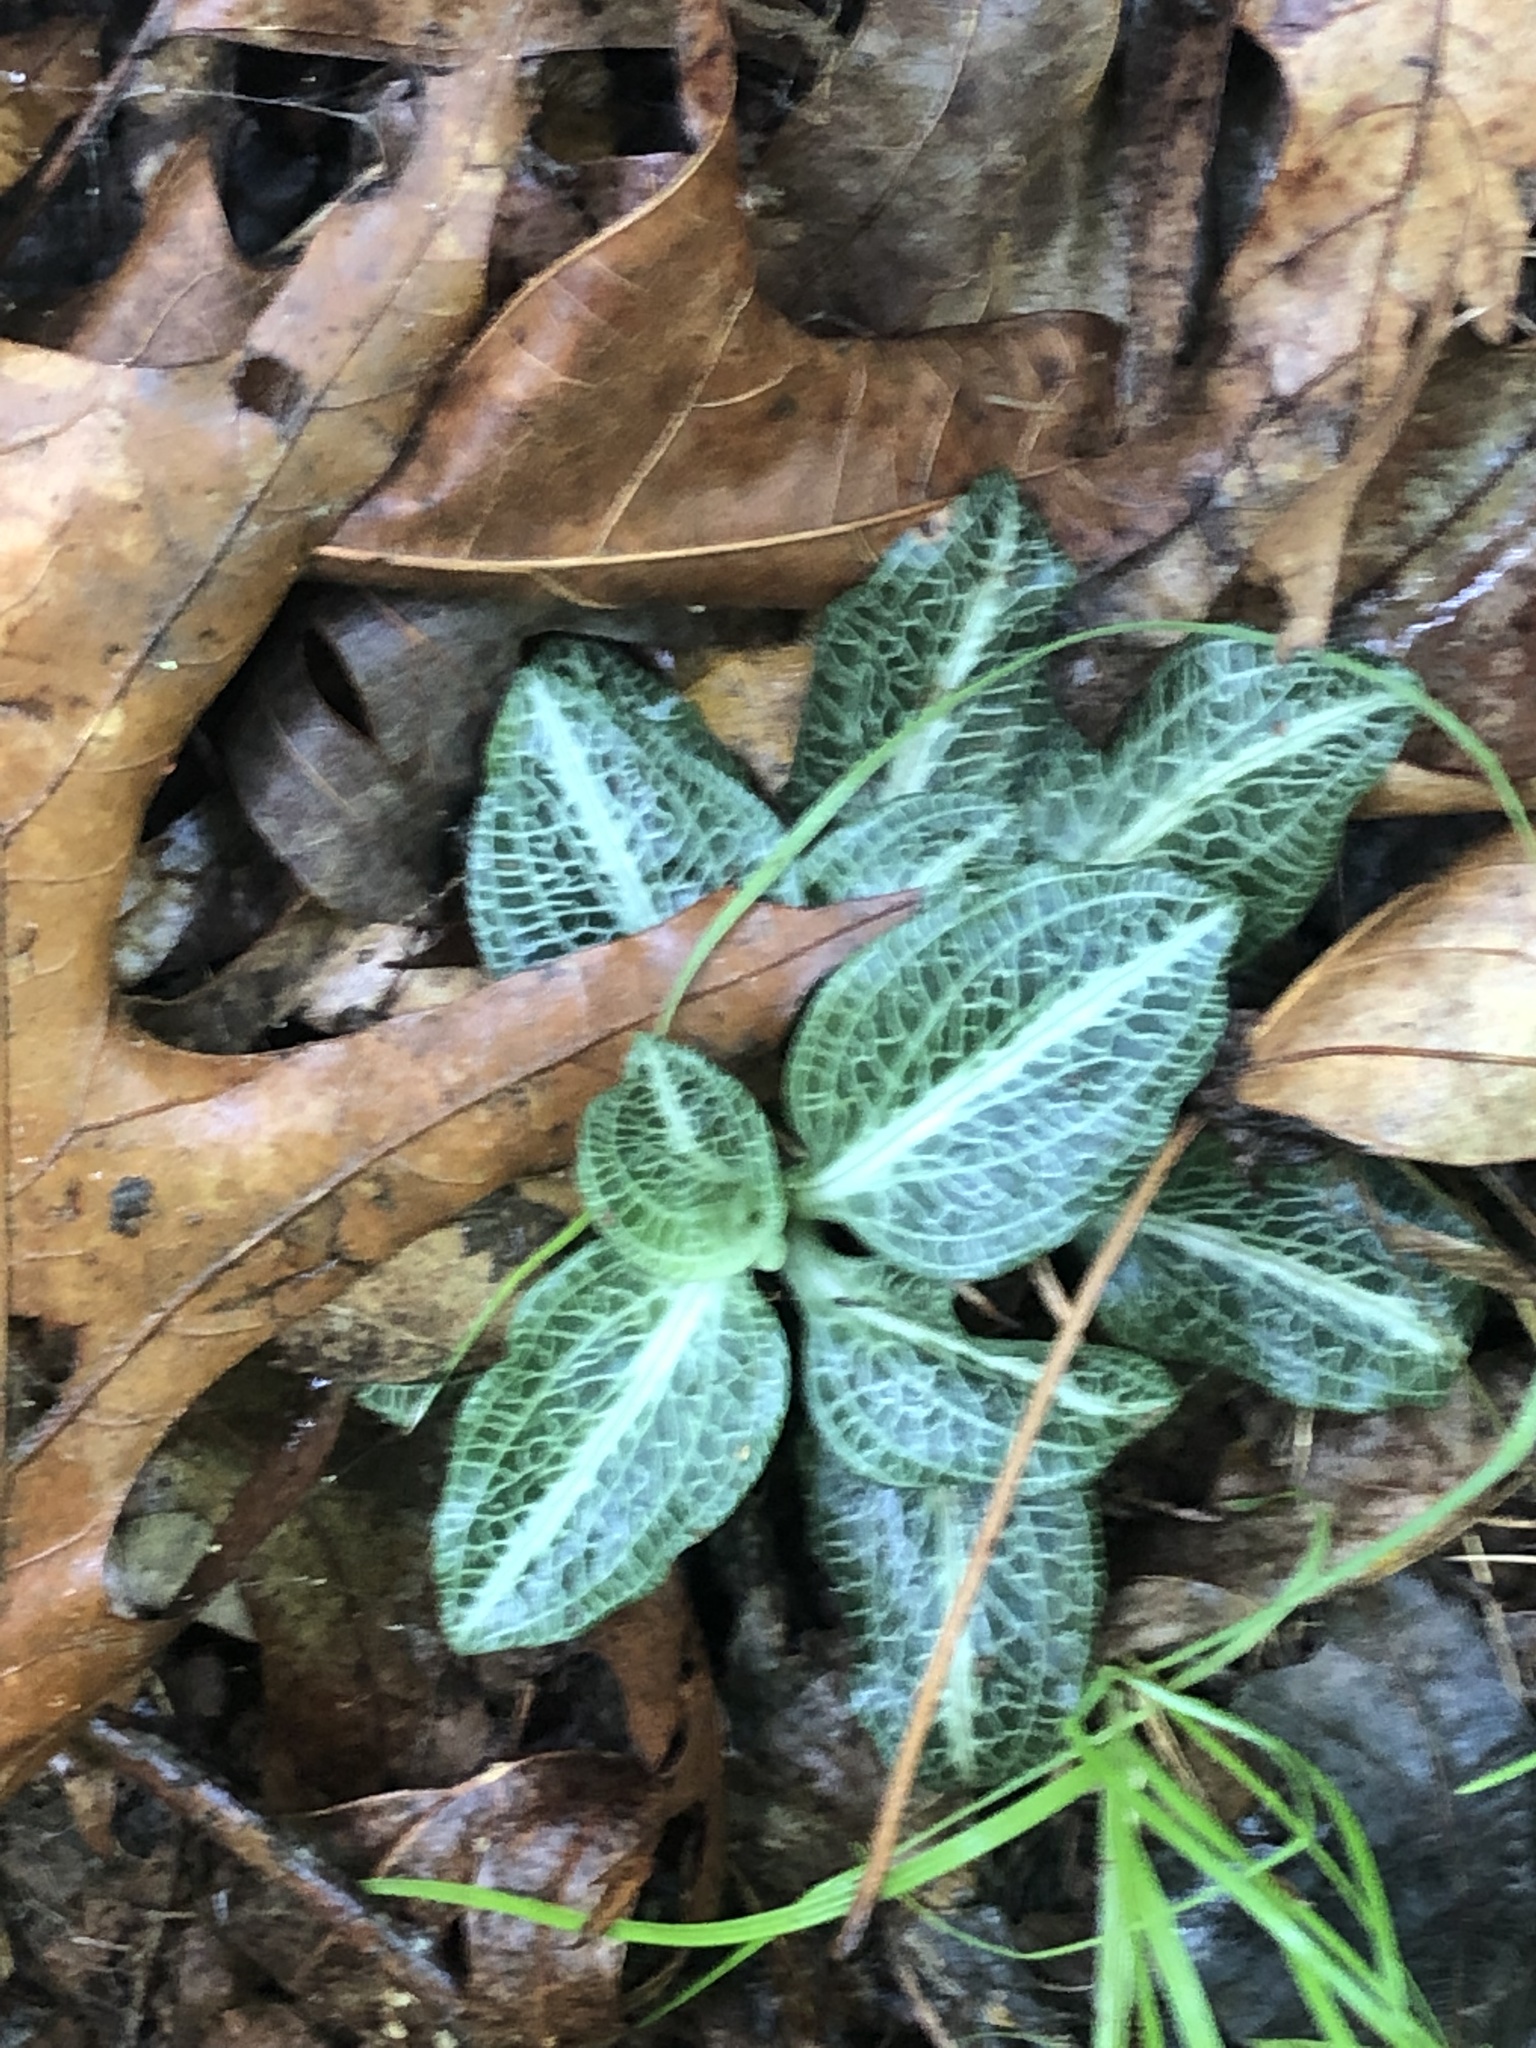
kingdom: Plantae
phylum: Tracheophyta
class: Liliopsida
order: Asparagales
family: Orchidaceae
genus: Goodyera
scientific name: Goodyera pubescens
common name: Downy rattlesnake-plantain
